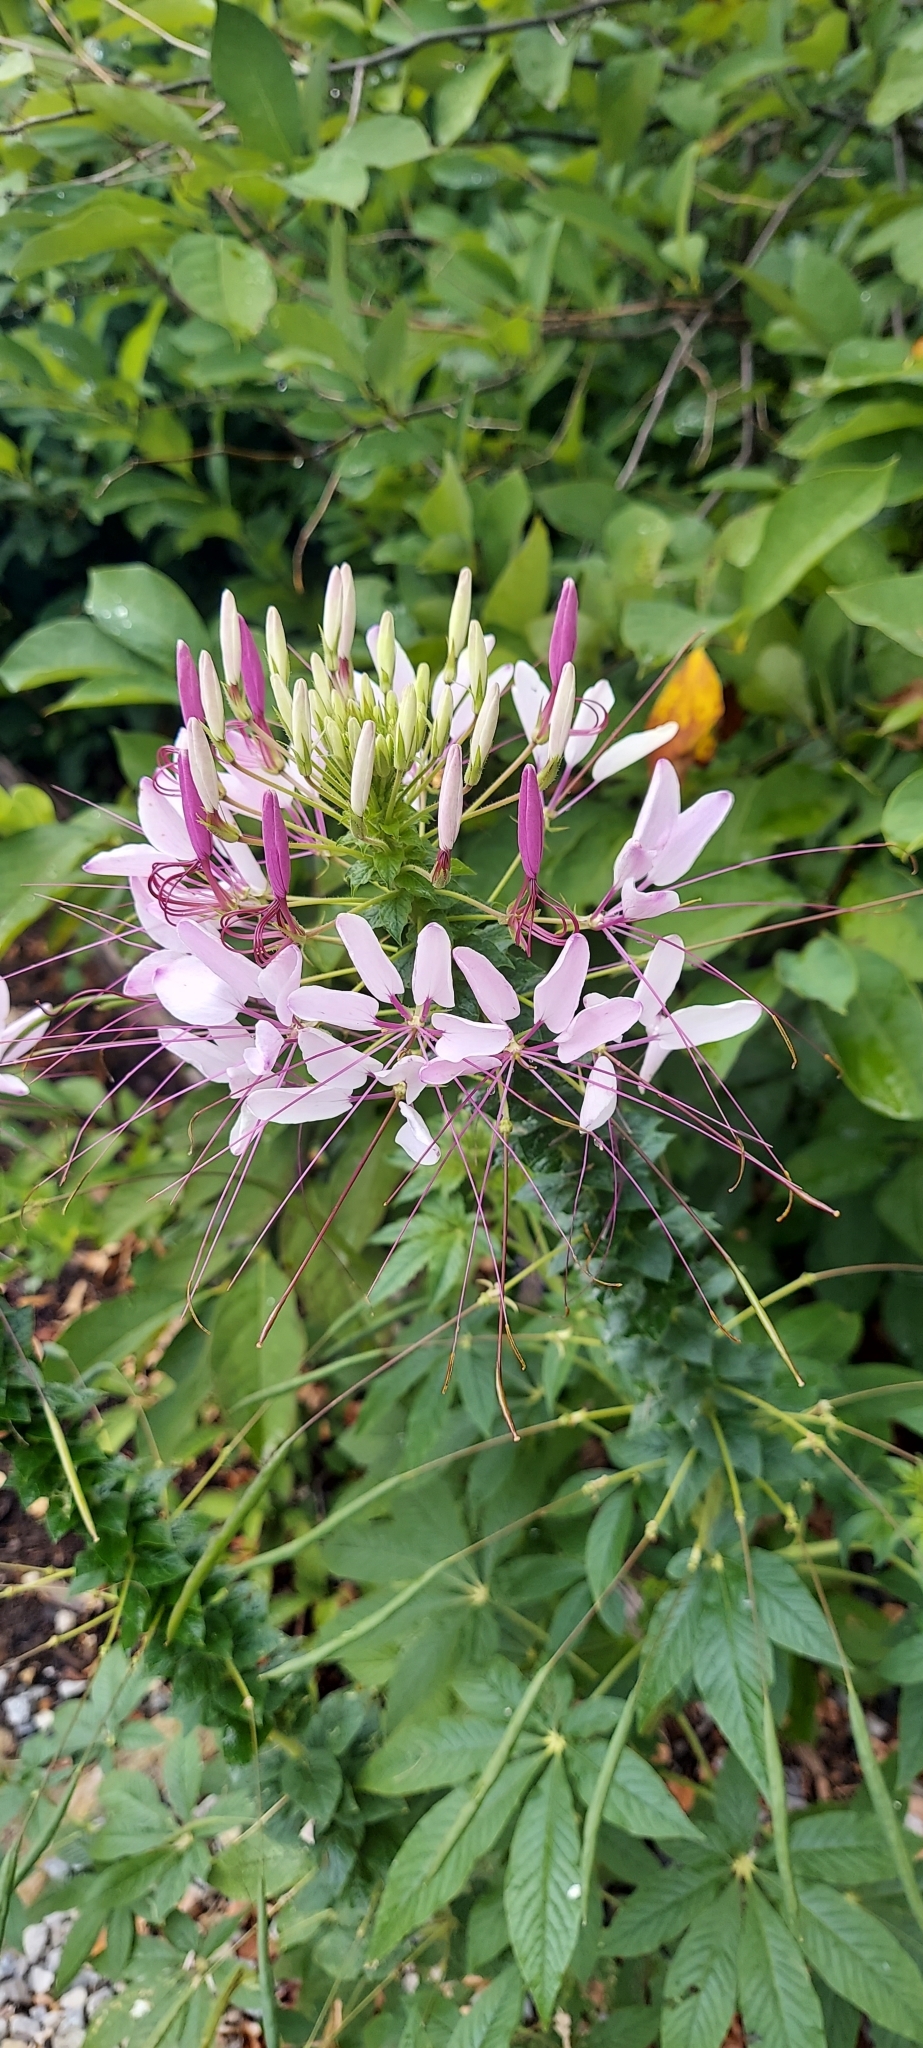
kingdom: Plantae
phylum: Tracheophyta
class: Magnoliopsida
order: Brassicales
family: Cleomaceae
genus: Tarenaya
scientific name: Tarenaya houtteana
